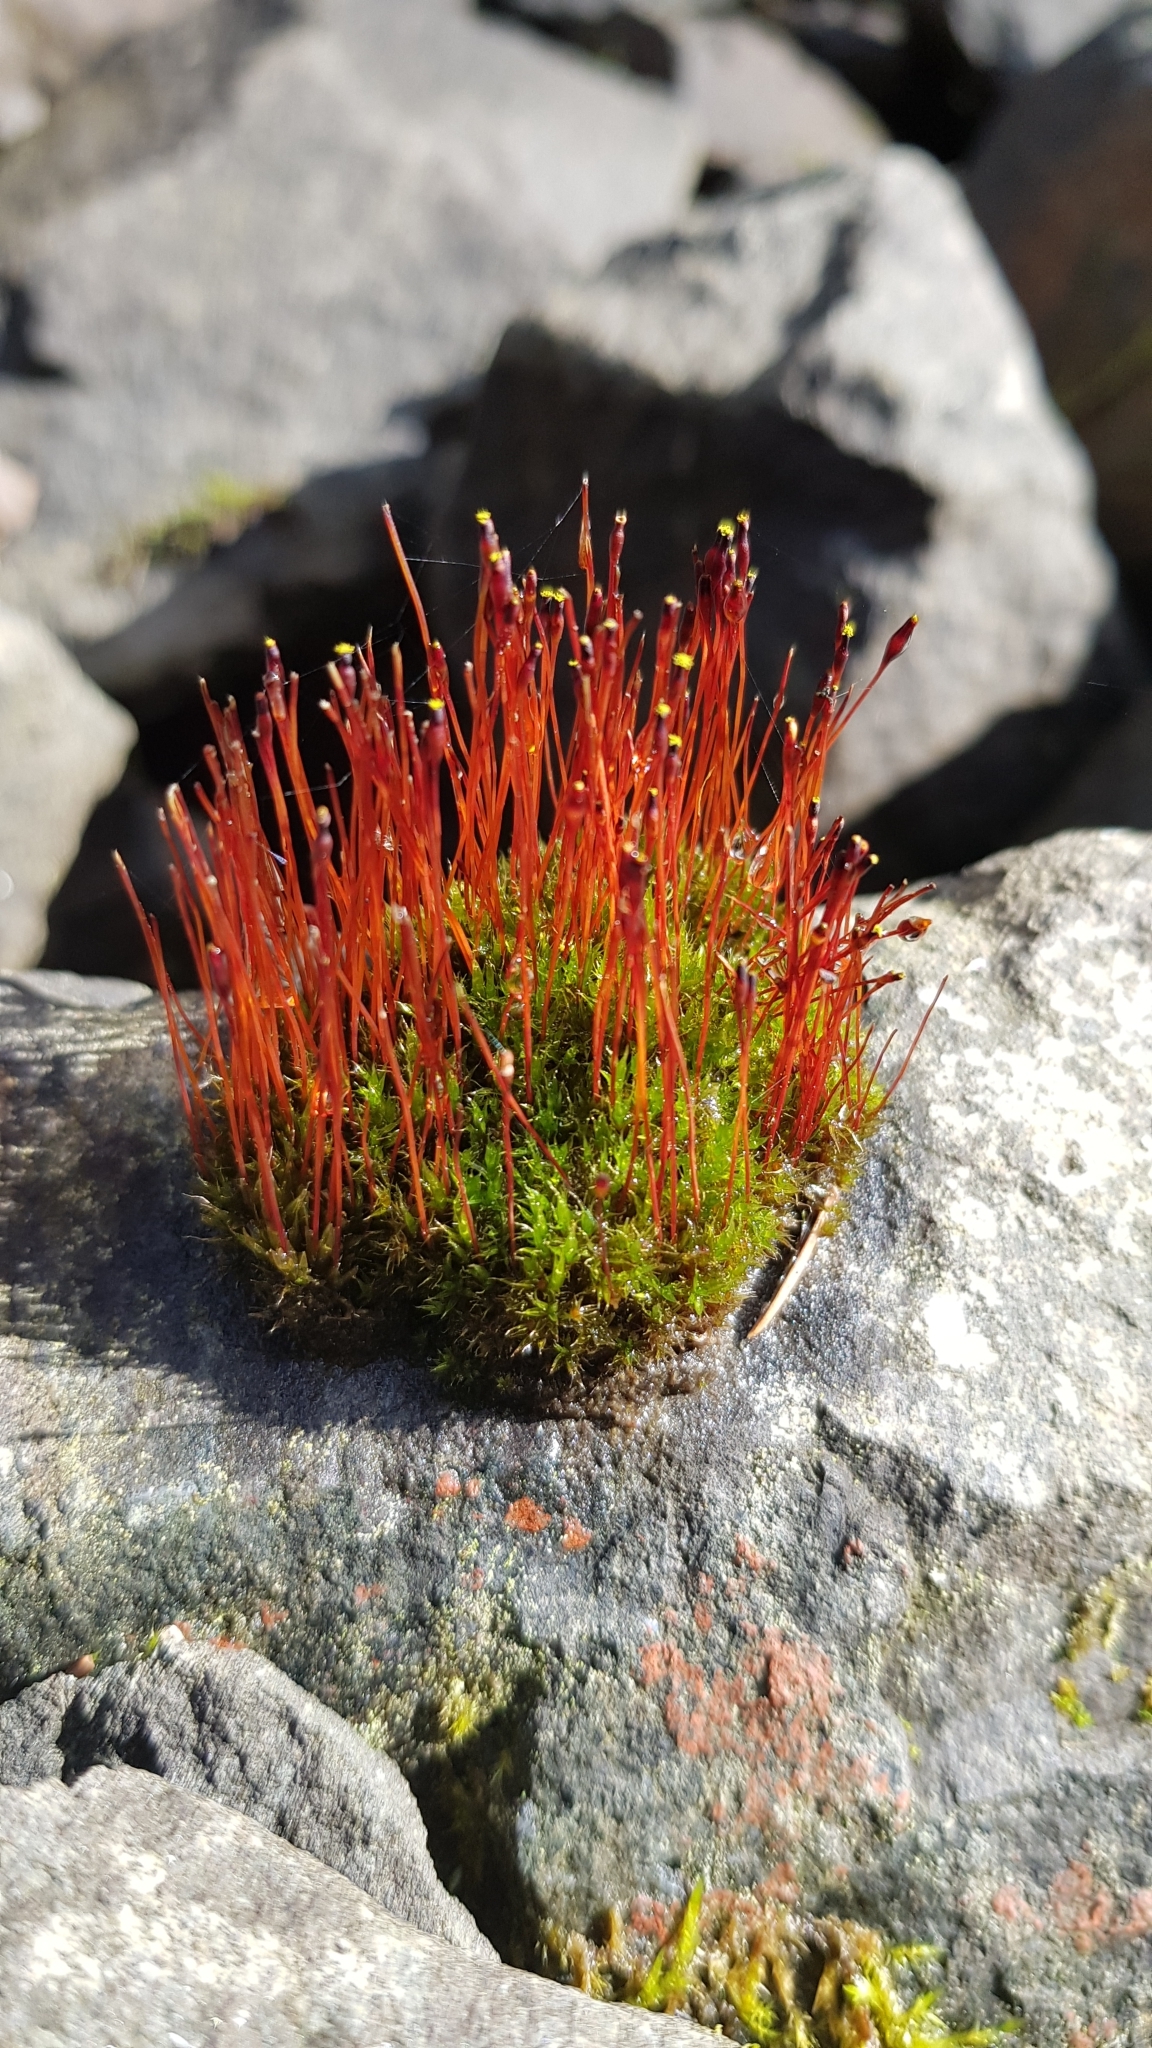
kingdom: Plantae
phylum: Bryophyta
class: Bryopsida
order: Splachnales
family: Splachnaceae
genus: Tetraplodon
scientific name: Tetraplodon mnioides
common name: Entire-leaved nitrogen moss
